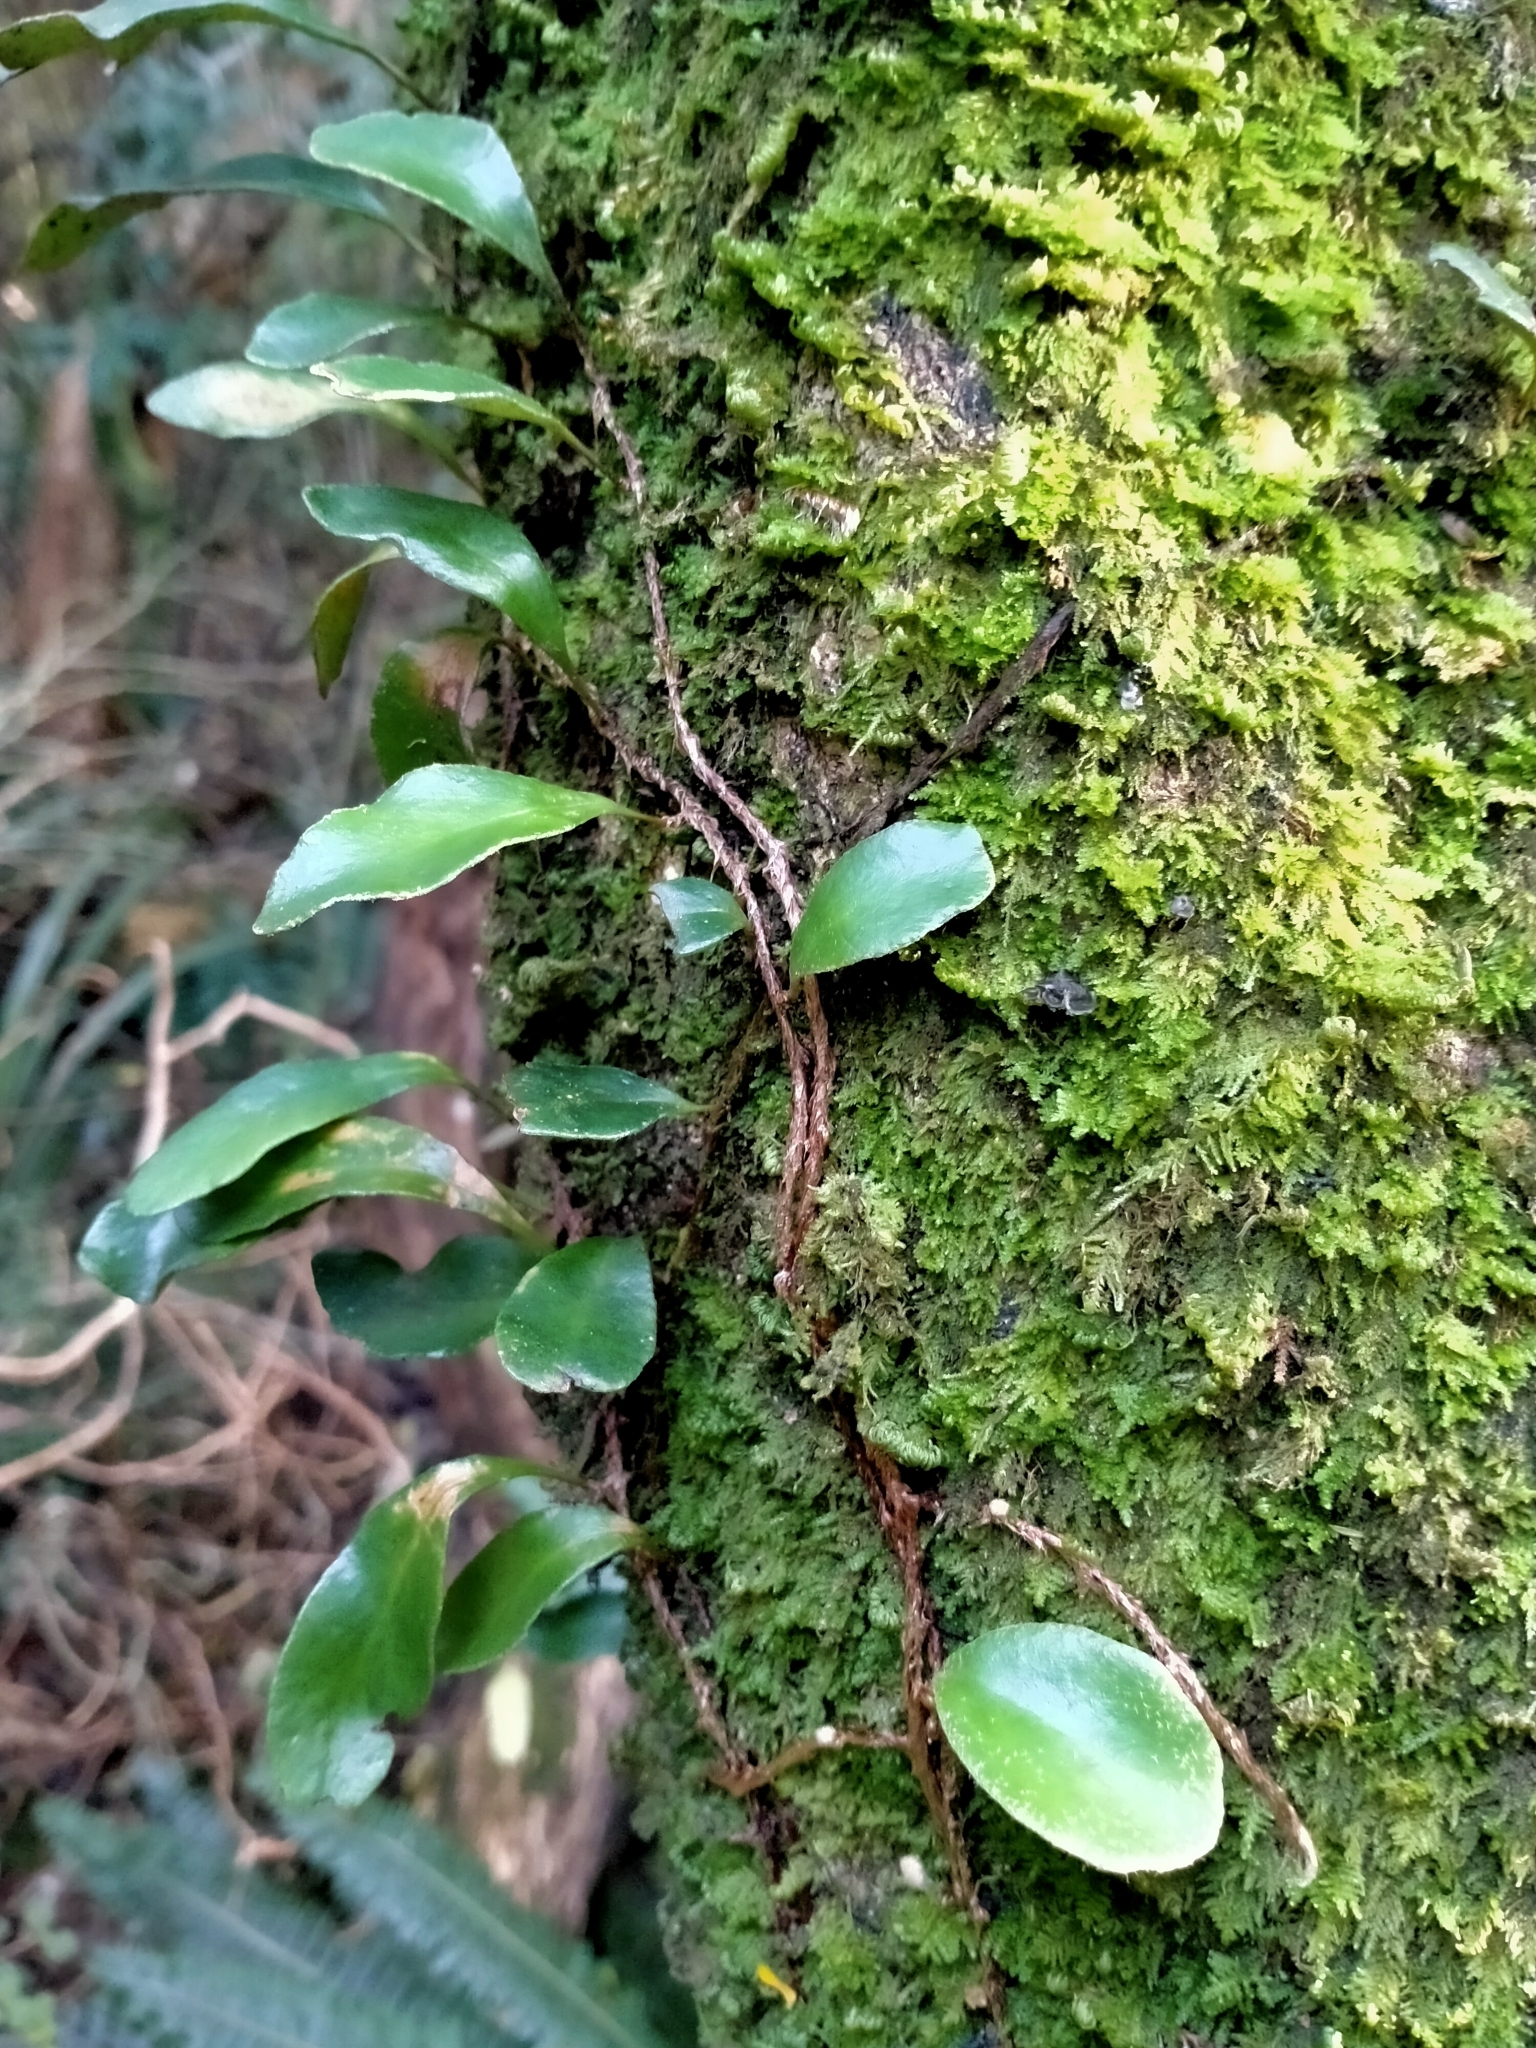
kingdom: Plantae
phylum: Tracheophyta
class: Polypodiopsida
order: Polypodiales
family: Polypodiaceae
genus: Pyrrosia
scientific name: Pyrrosia eleagnifolia
